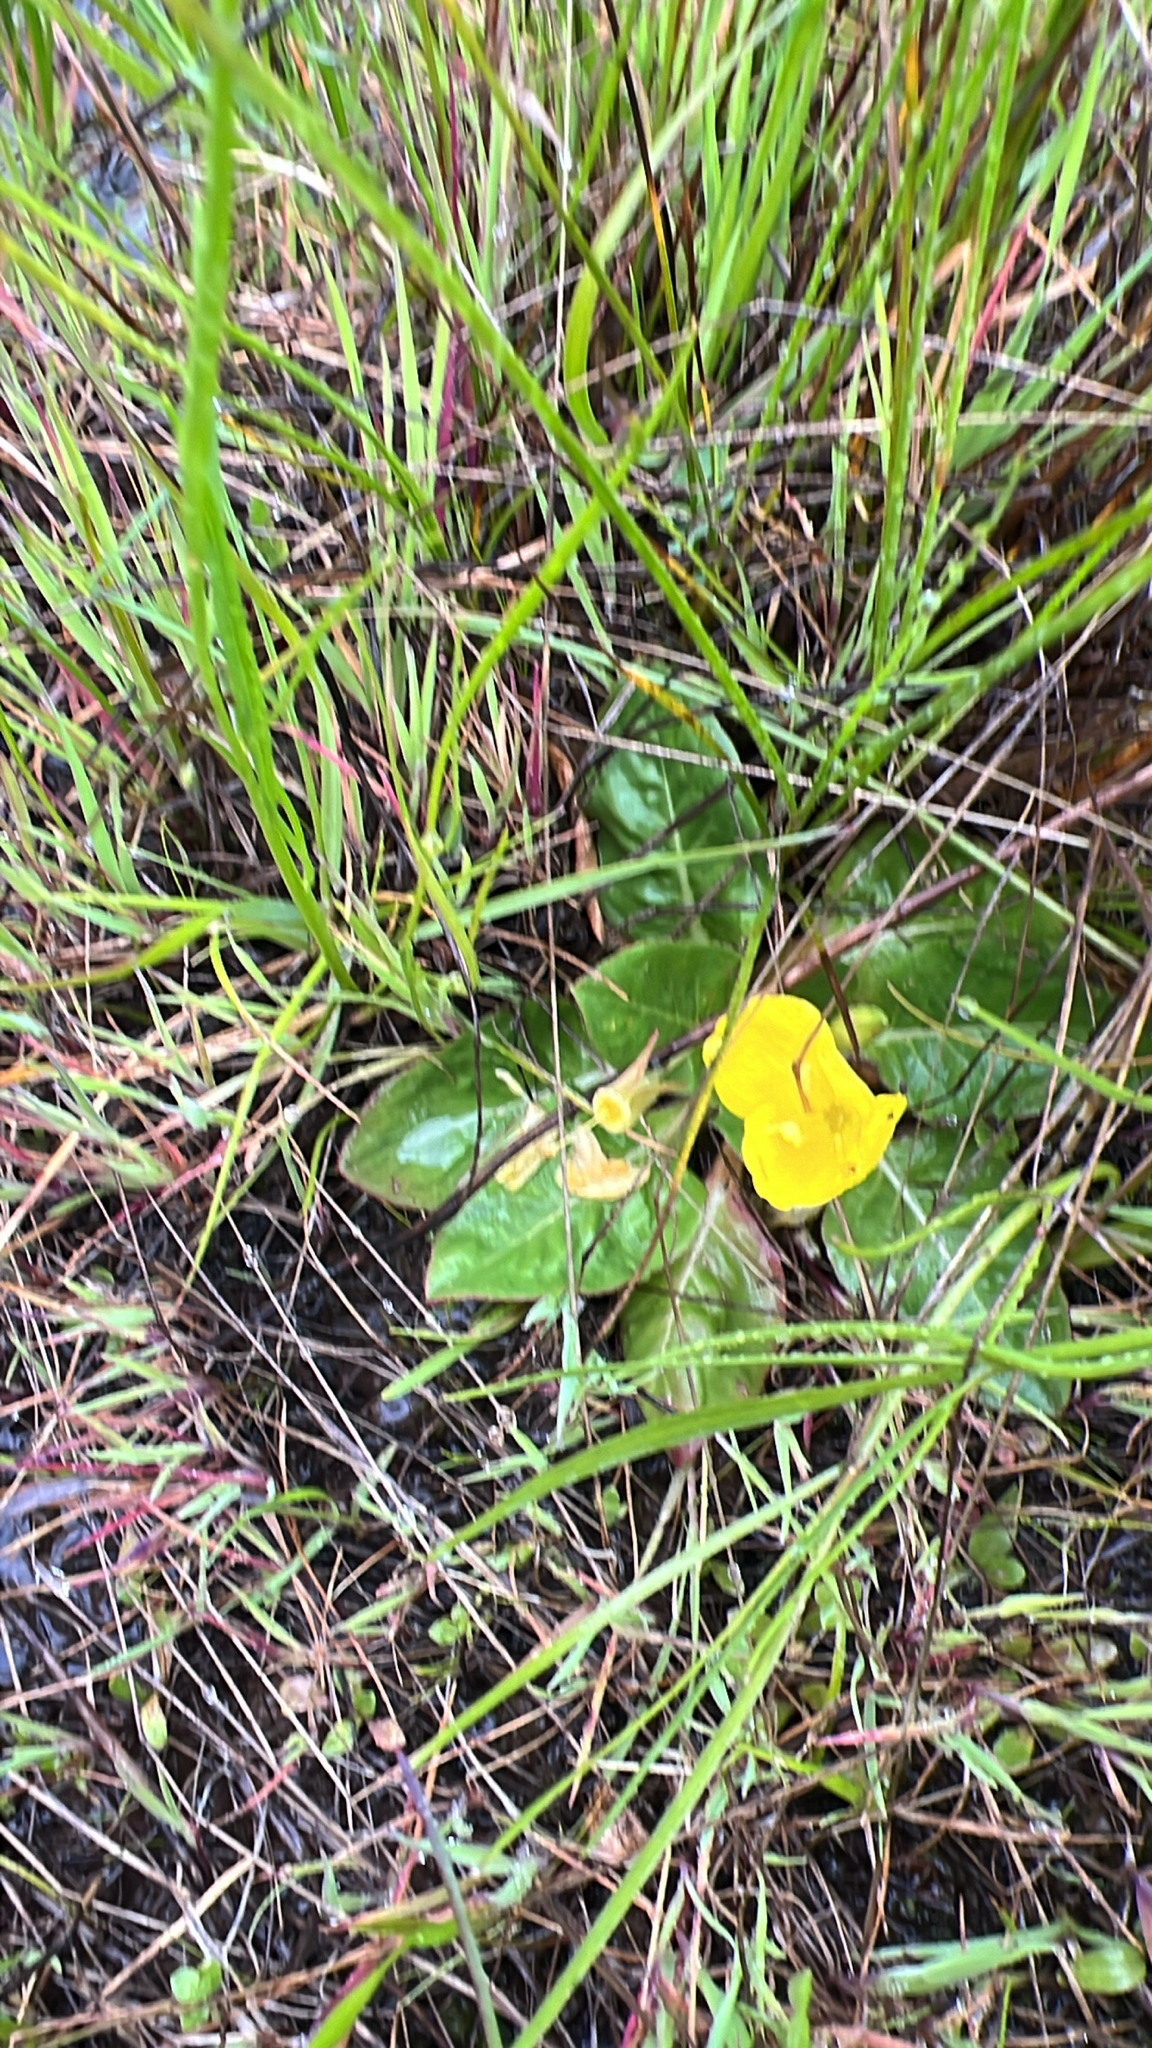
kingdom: Plantae
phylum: Tracheophyta
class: Magnoliopsida
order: Myrtales
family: Onagraceae
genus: Taraxia
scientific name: Taraxia ovata
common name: Goldeneggs
